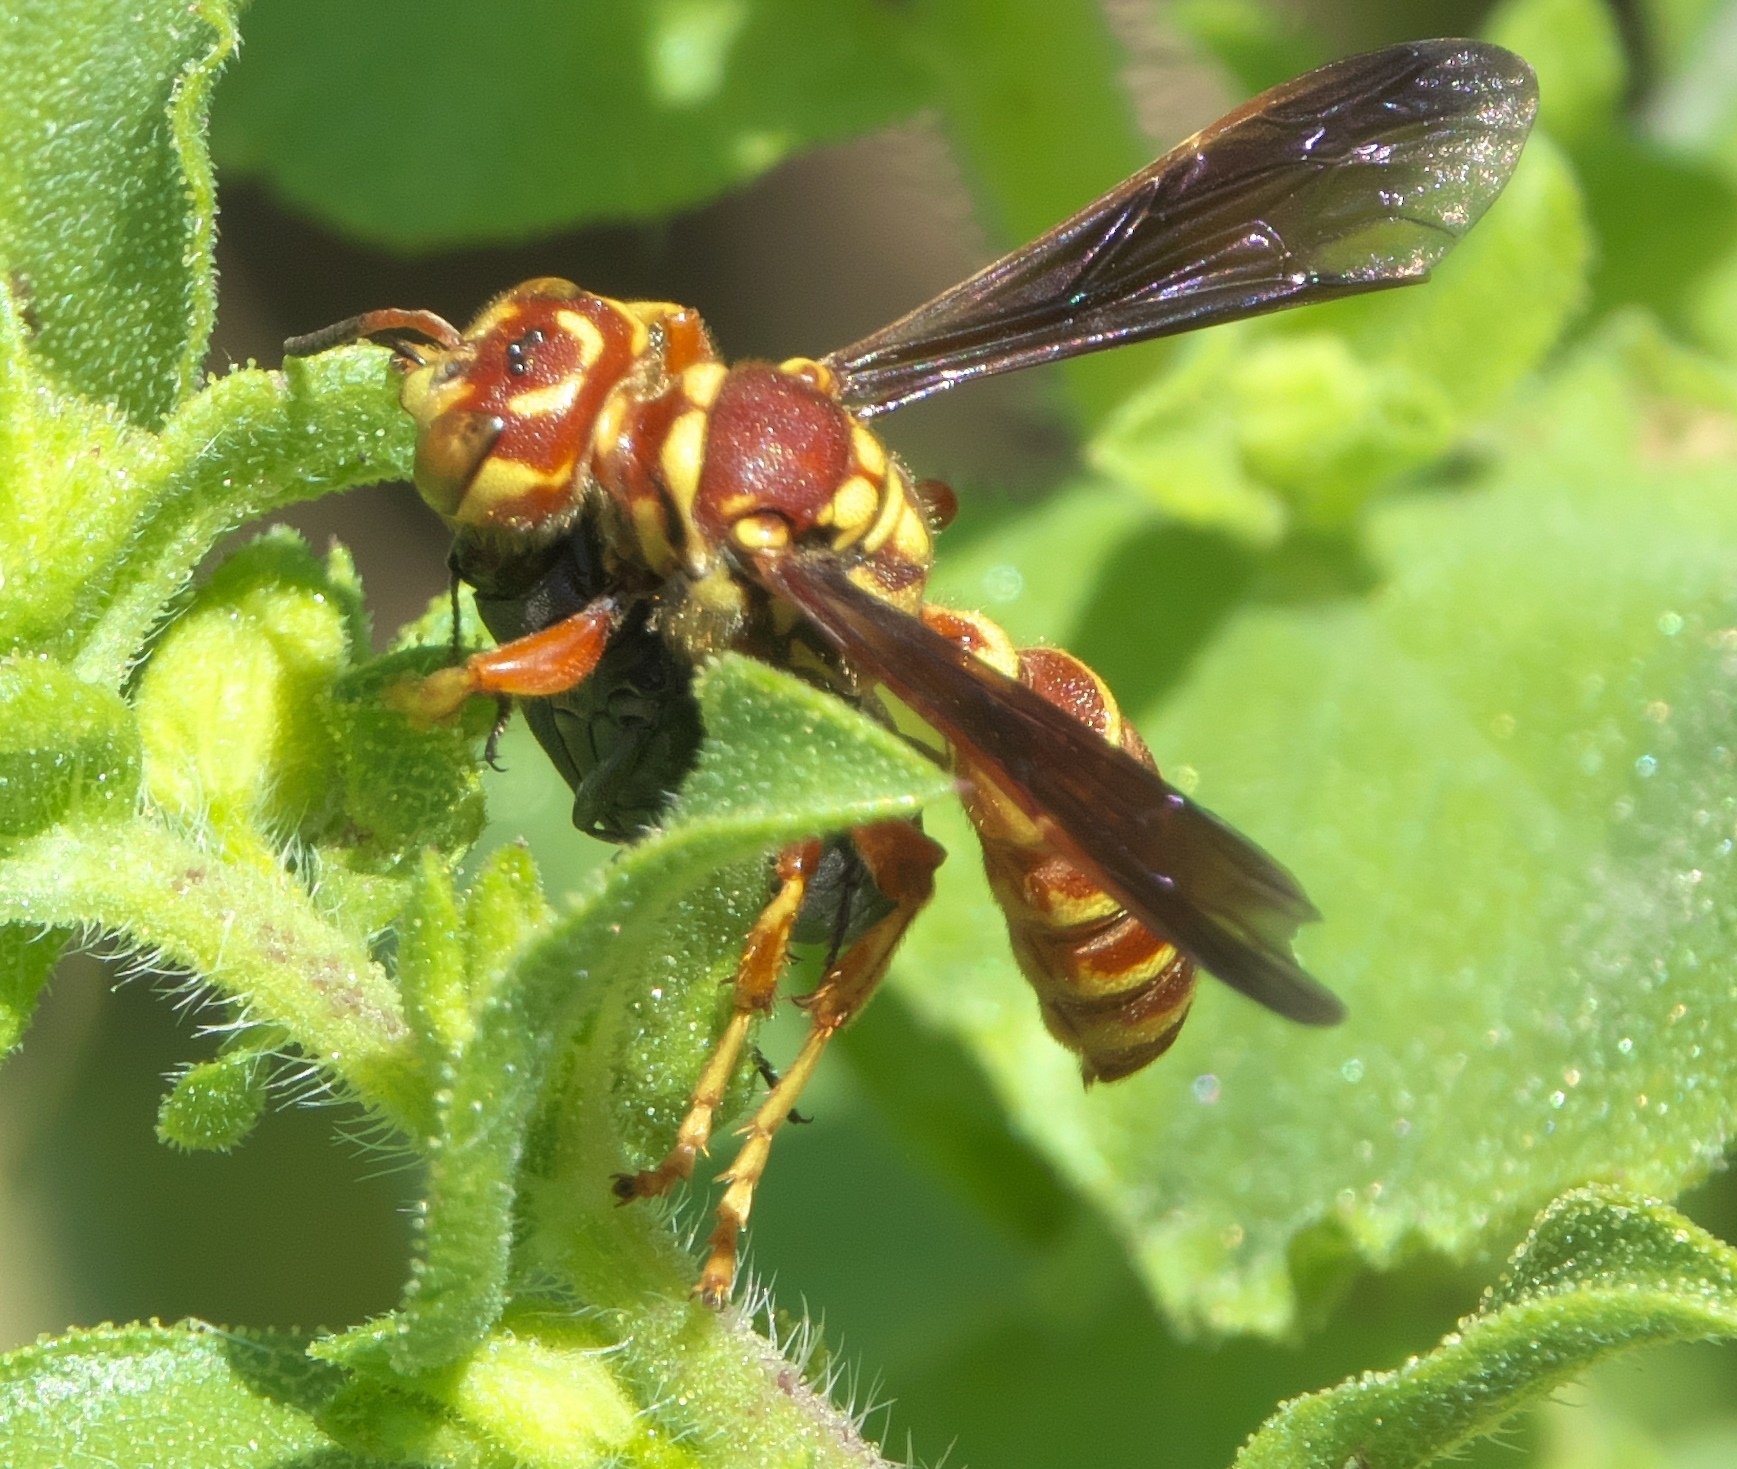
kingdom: Animalia
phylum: Arthropoda
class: Insecta
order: Hymenoptera
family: Crabronidae
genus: Cerceris
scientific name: Cerceris intricata
